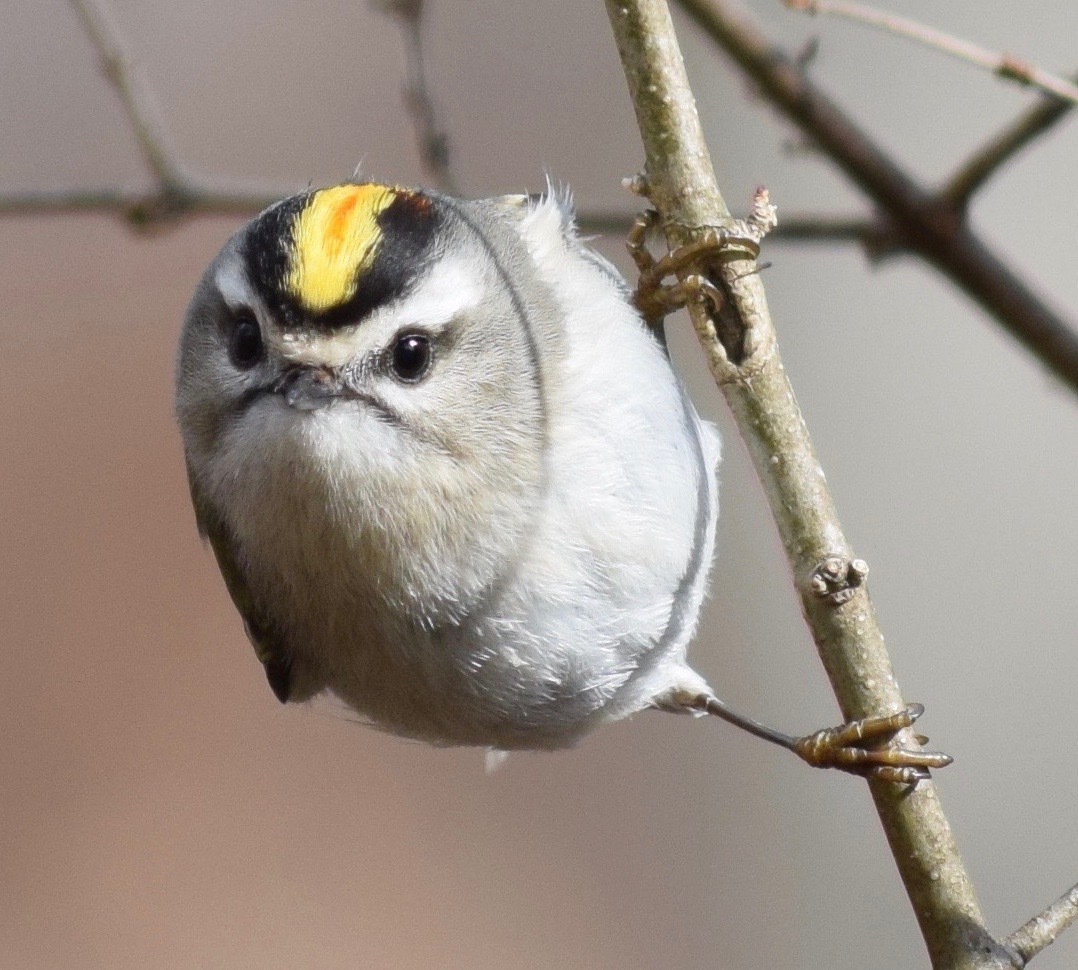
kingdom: Animalia
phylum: Chordata
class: Aves
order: Passeriformes
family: Regulidae
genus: Regulus
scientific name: Regulus satrapa
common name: Golden-crowned kinglet
